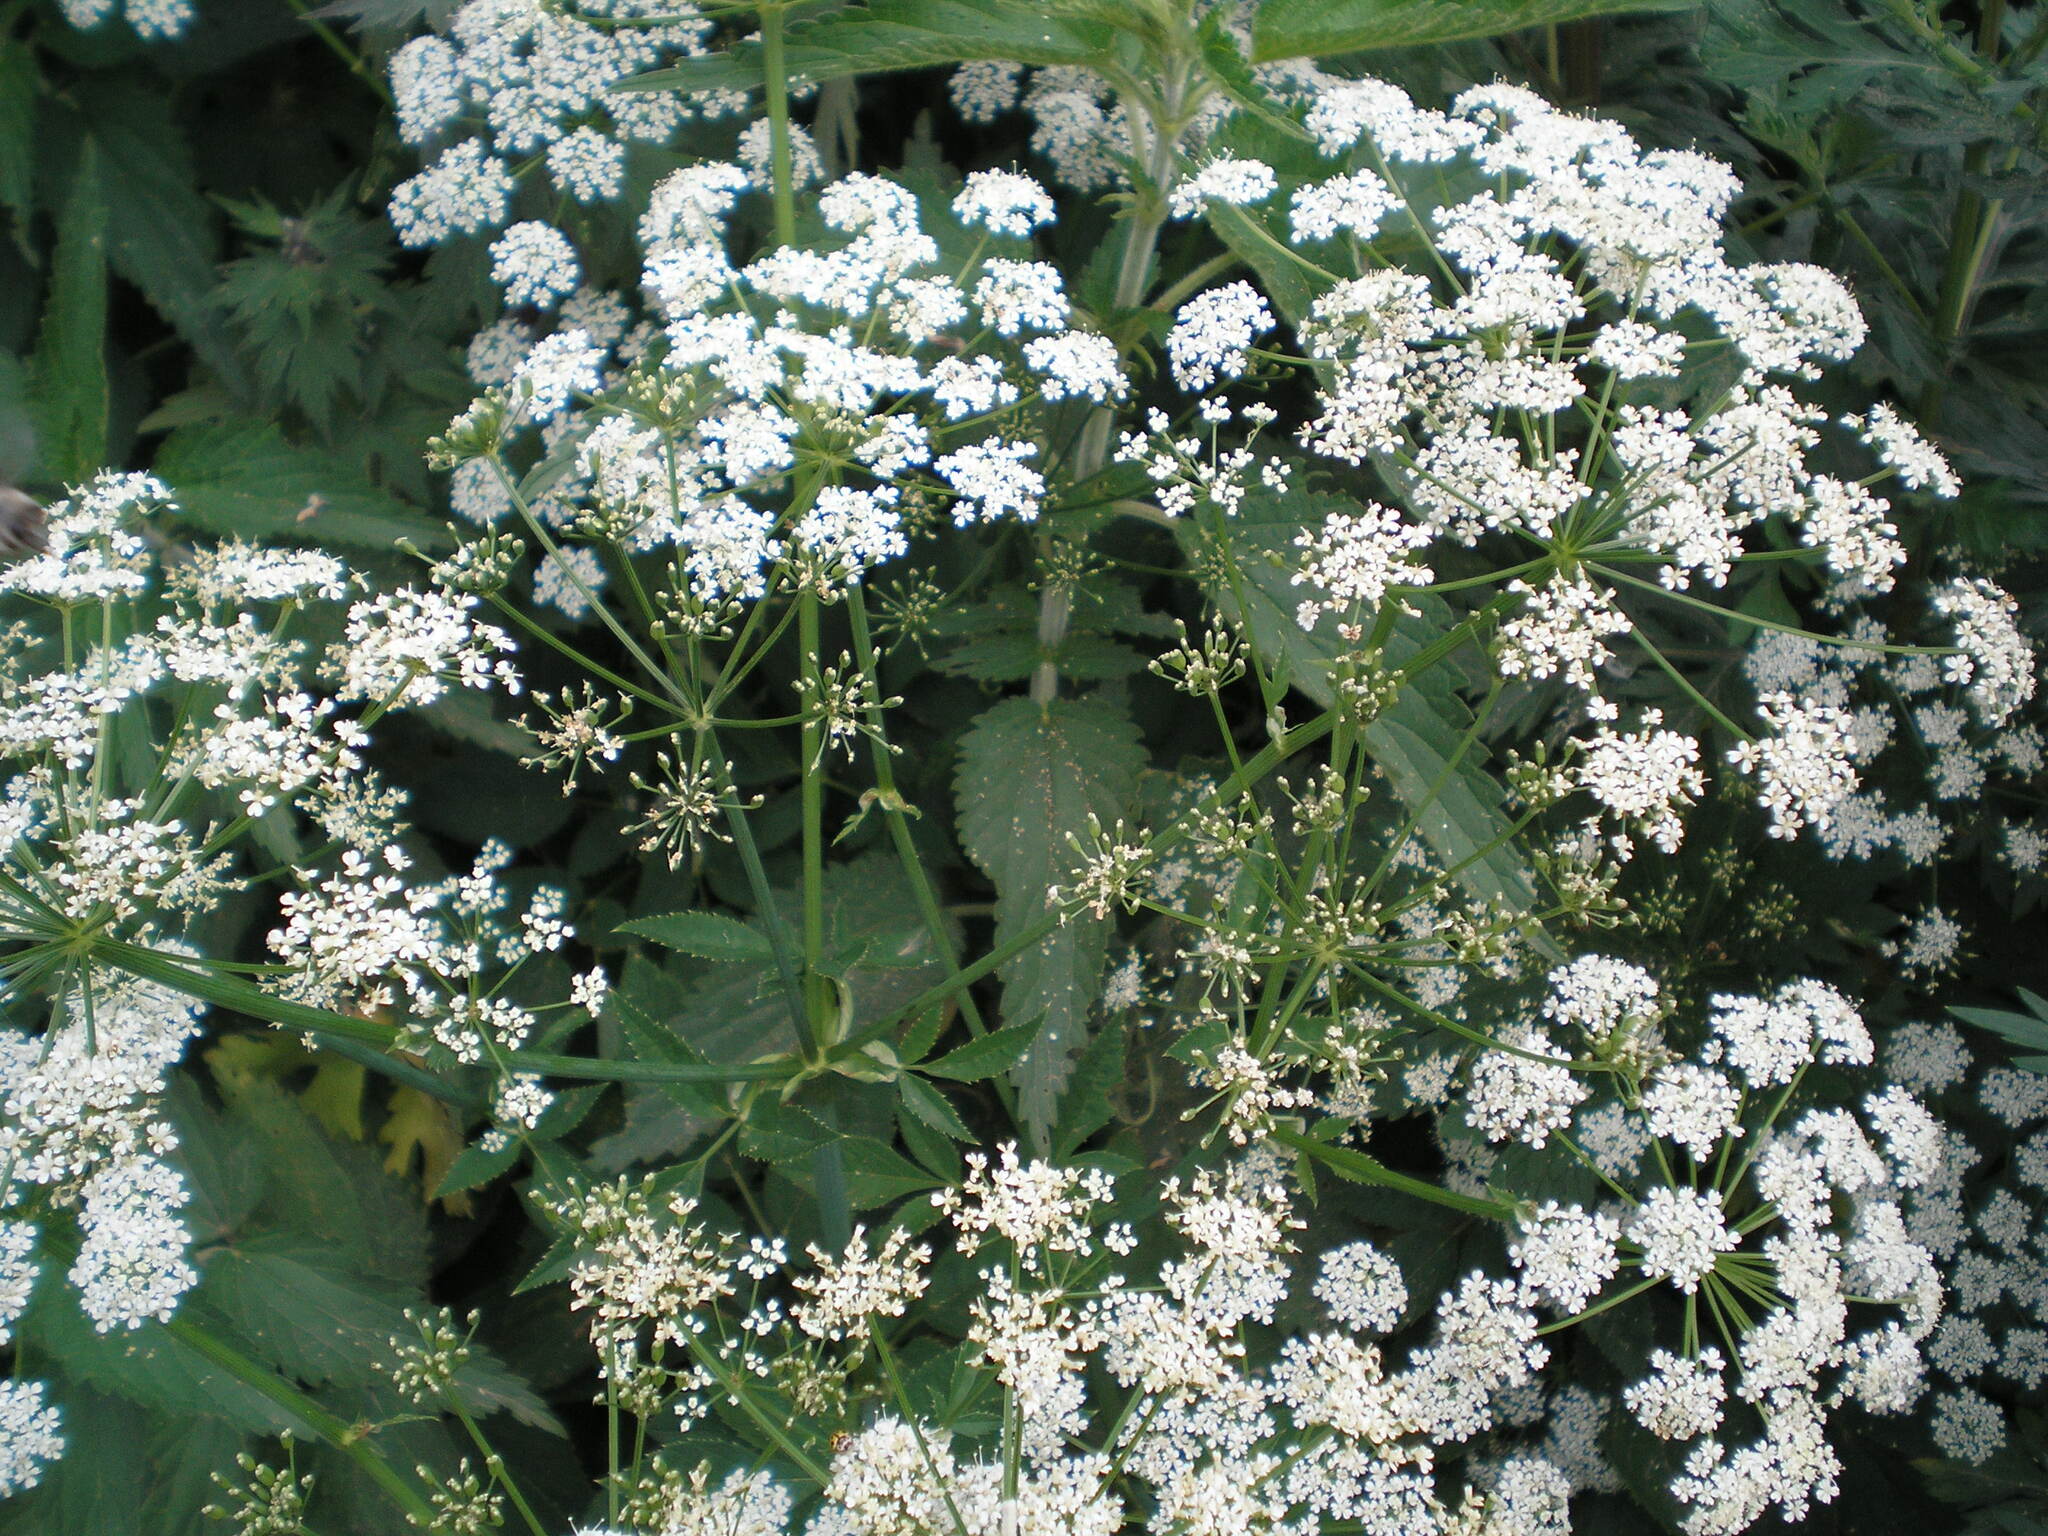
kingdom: Plantae
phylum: Tracheophyta
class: Magnoliopsida
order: Apiales
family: Apiaceae
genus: Aegopodium
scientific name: Aegopodium podagraria
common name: Ground-elder
